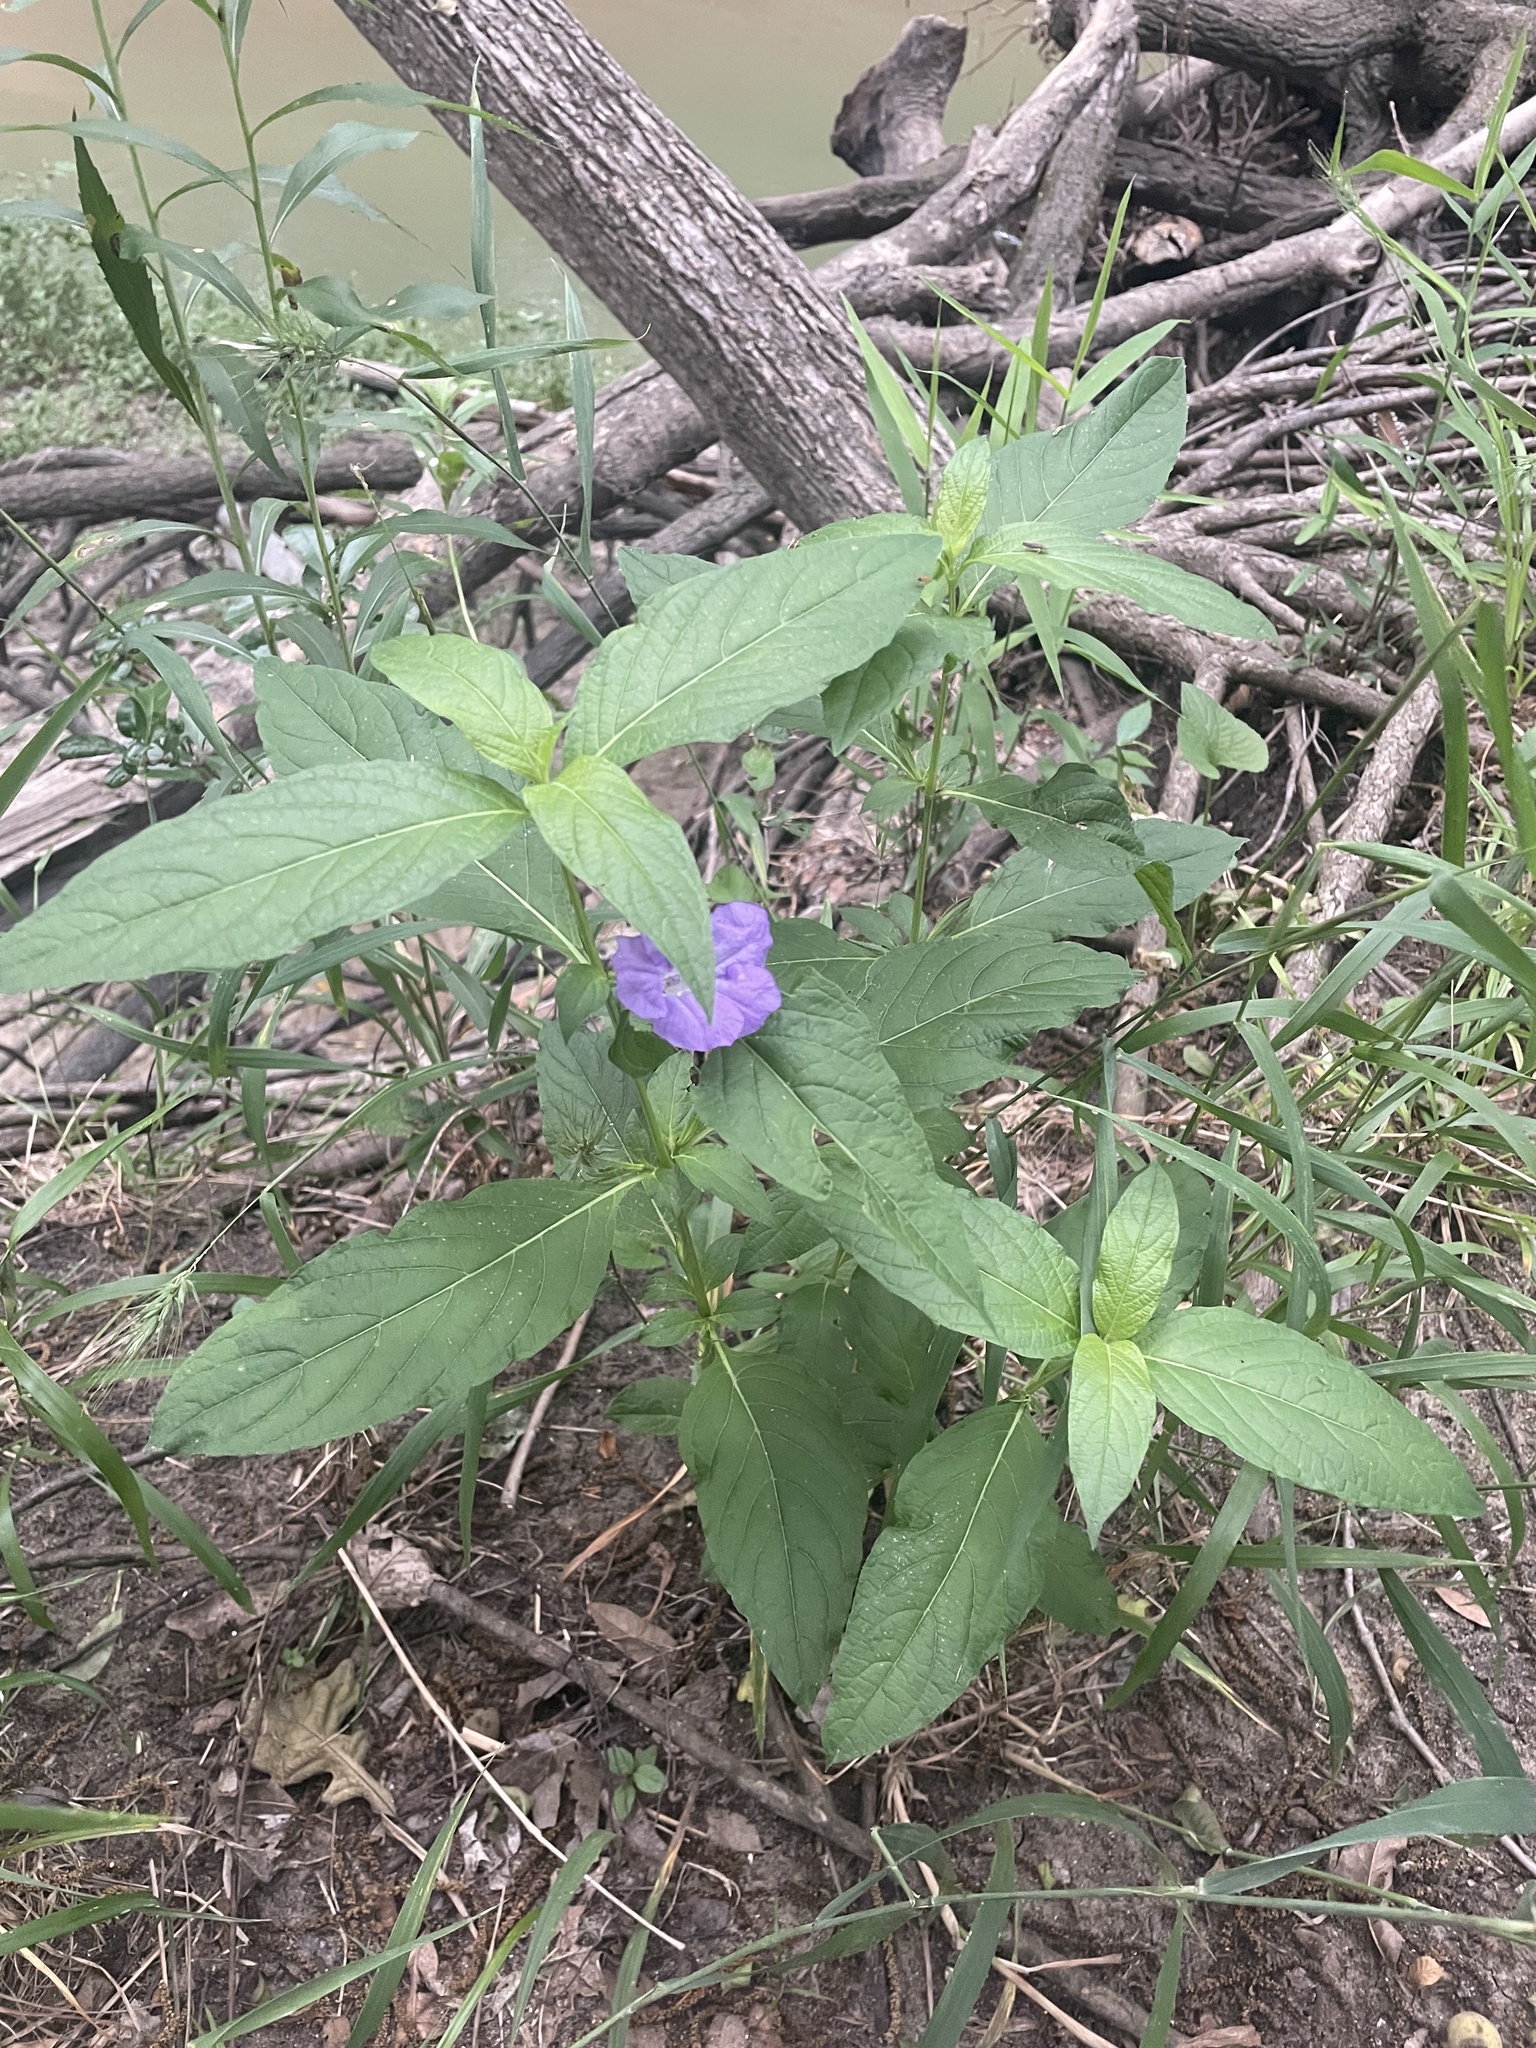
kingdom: Plantae
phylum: Tracheophyta
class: Magnoliopsida
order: Lamiales
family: Acanthaceae
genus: Ruellia
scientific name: Ruellia strepens
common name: Limestone wild petunia
